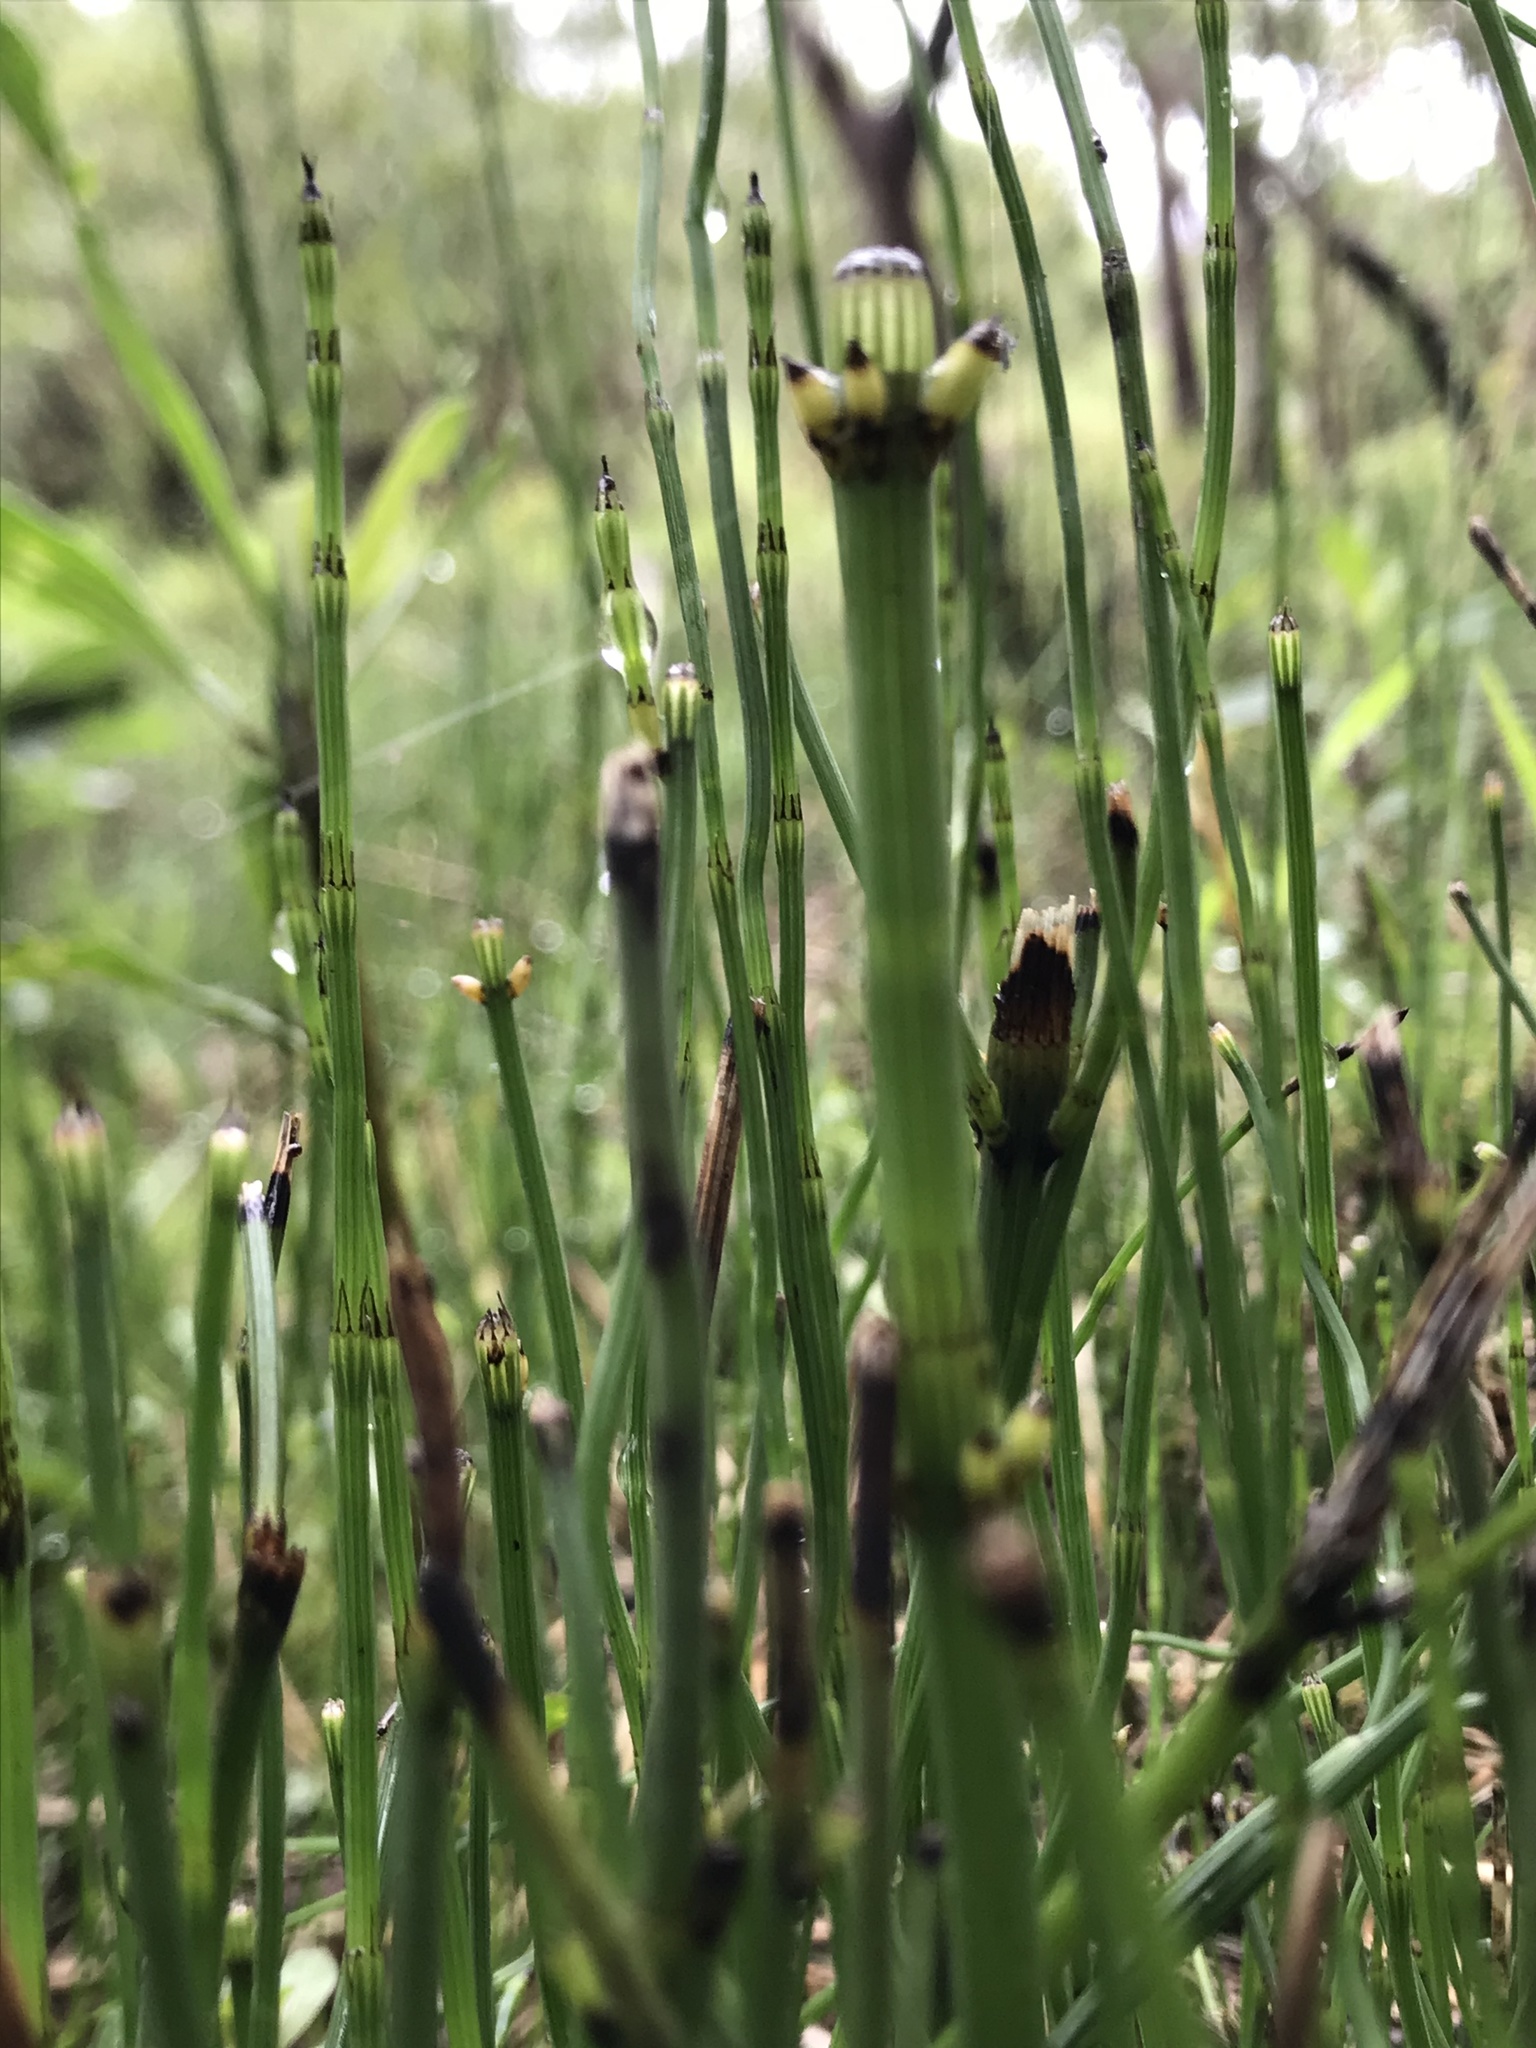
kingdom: Plantae
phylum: Tracheophyta
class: Polypodiopsida
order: Equisetales
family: Equisetaceae
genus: Equisetum
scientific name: Equisetum bogotense
